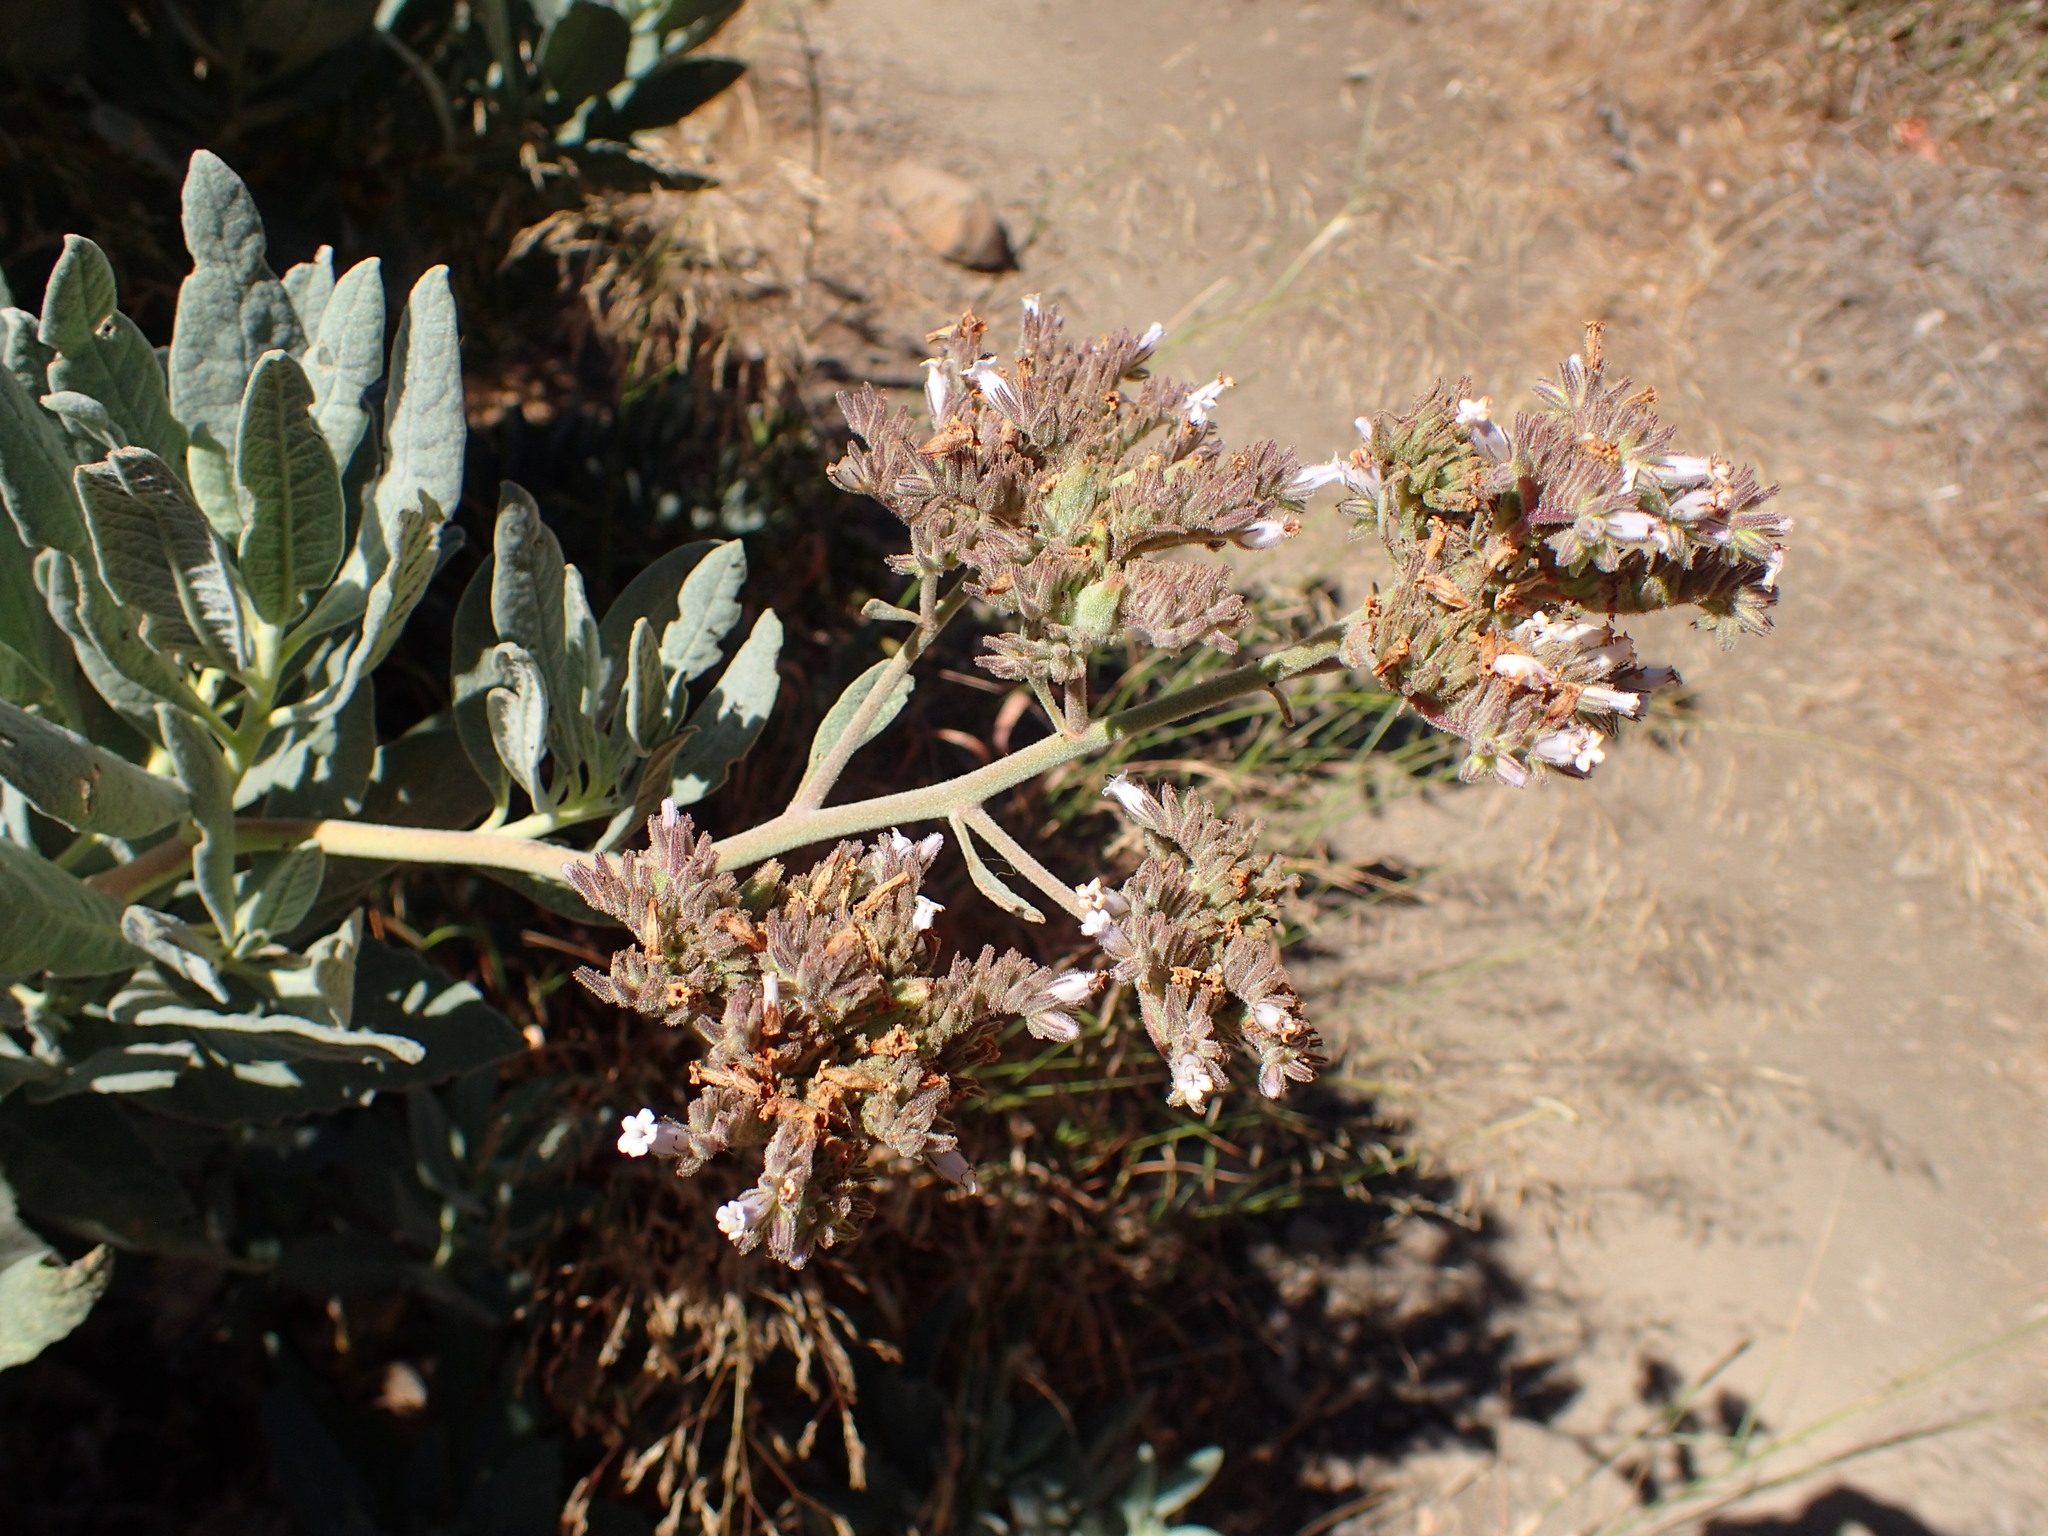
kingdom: Plantae
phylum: Tracheophyta
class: Magnoliopsida
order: Boraginales
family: Namaceae
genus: Eriodictyon
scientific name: Eriodictyon traskiae
